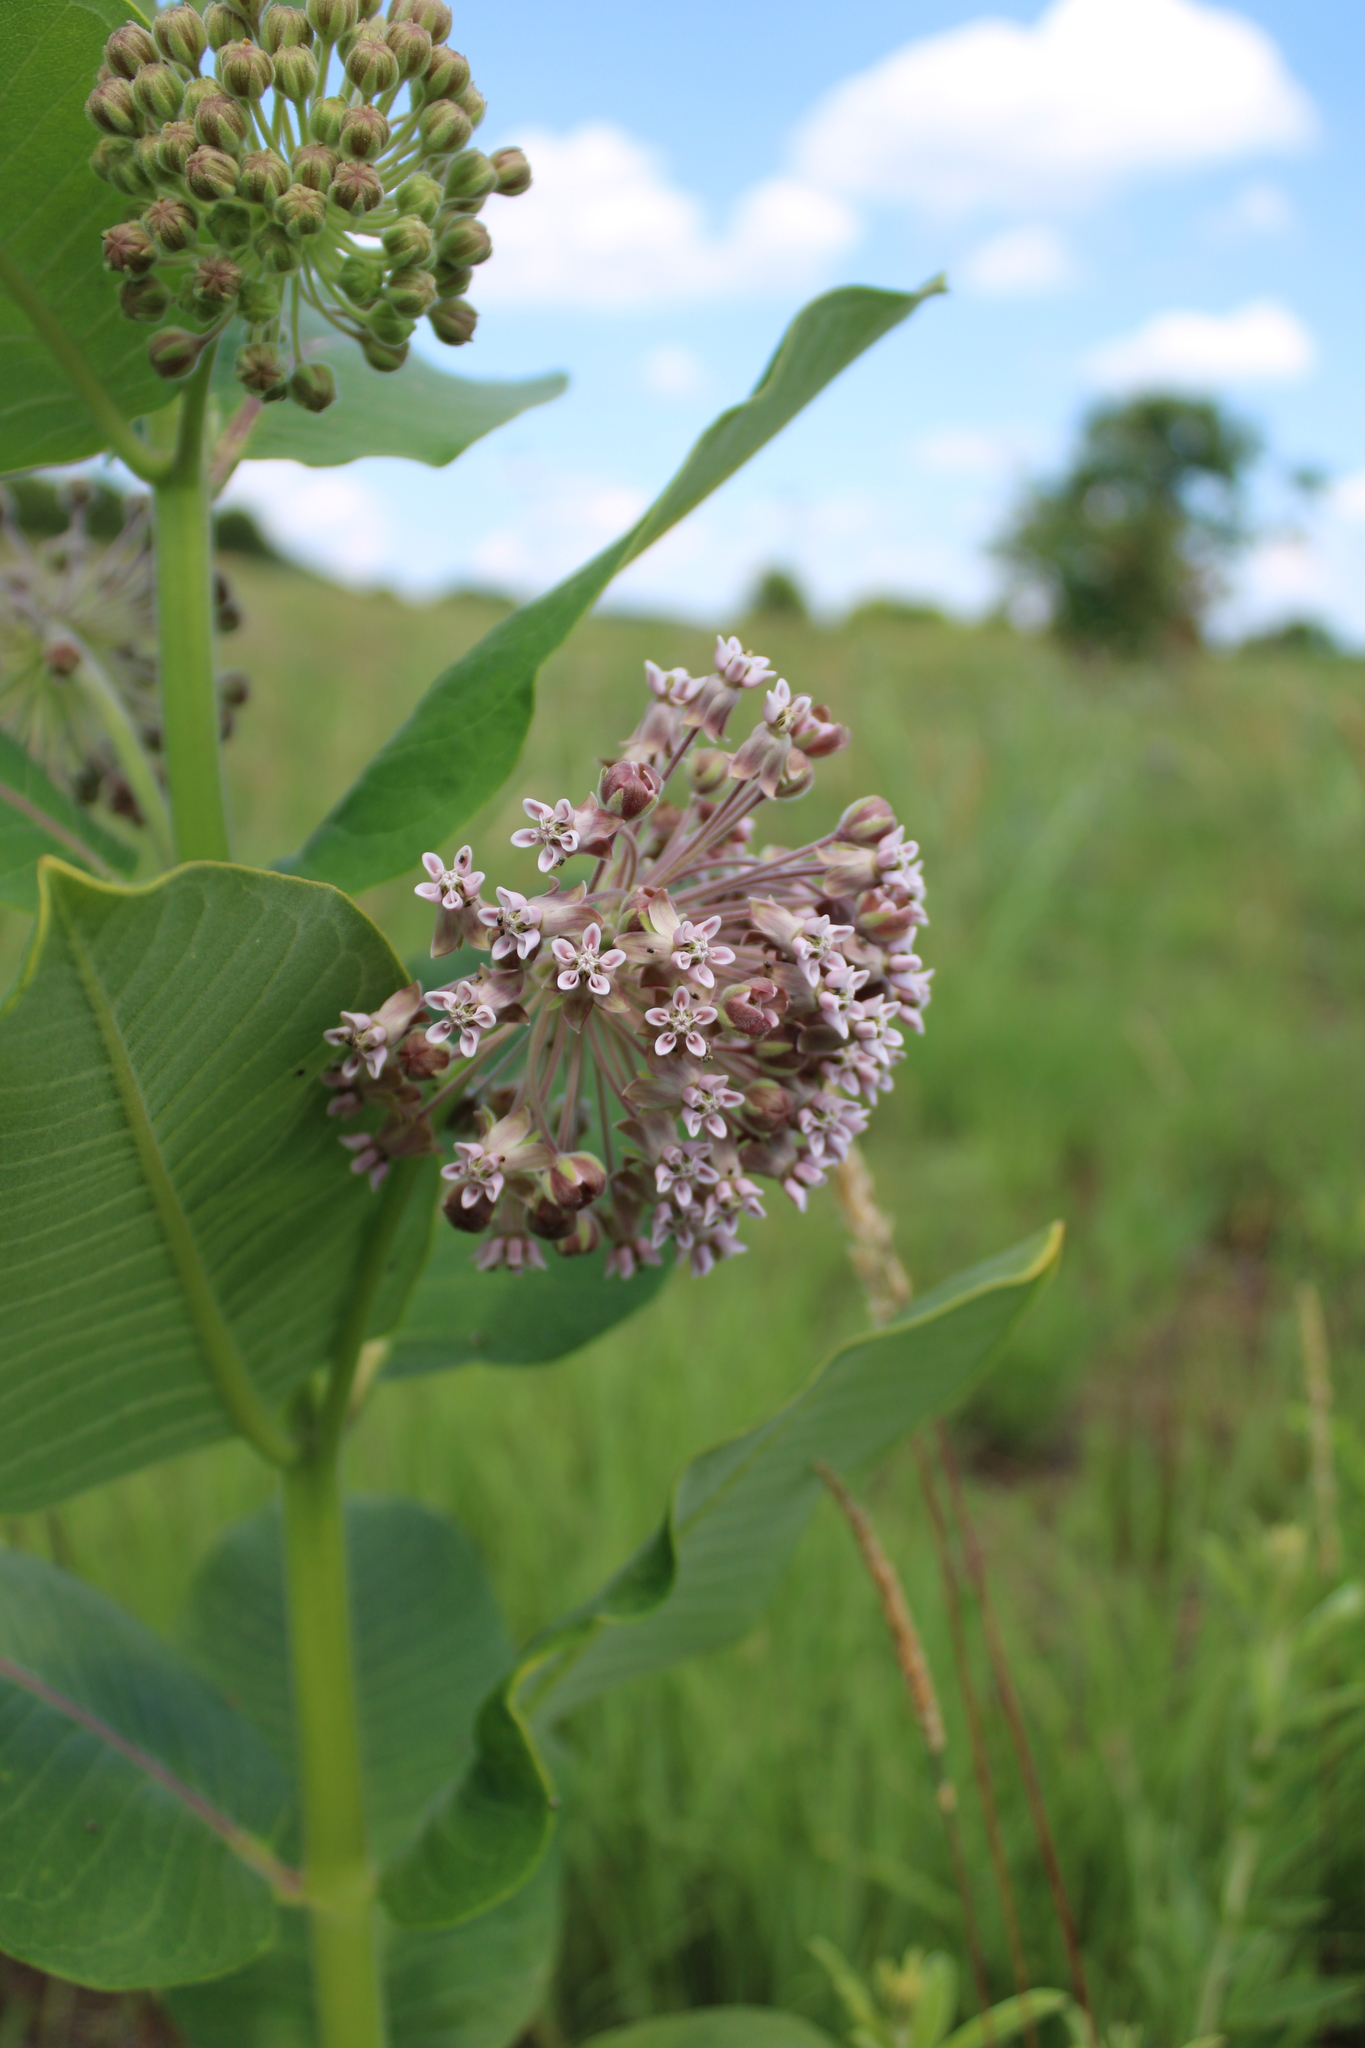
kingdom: Plantae
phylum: Tracheophyta
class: Magnoliopsida
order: Gentianales
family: Apocynaceae
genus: Asclepias
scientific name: Asclepias syriaca
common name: Common milkweed
